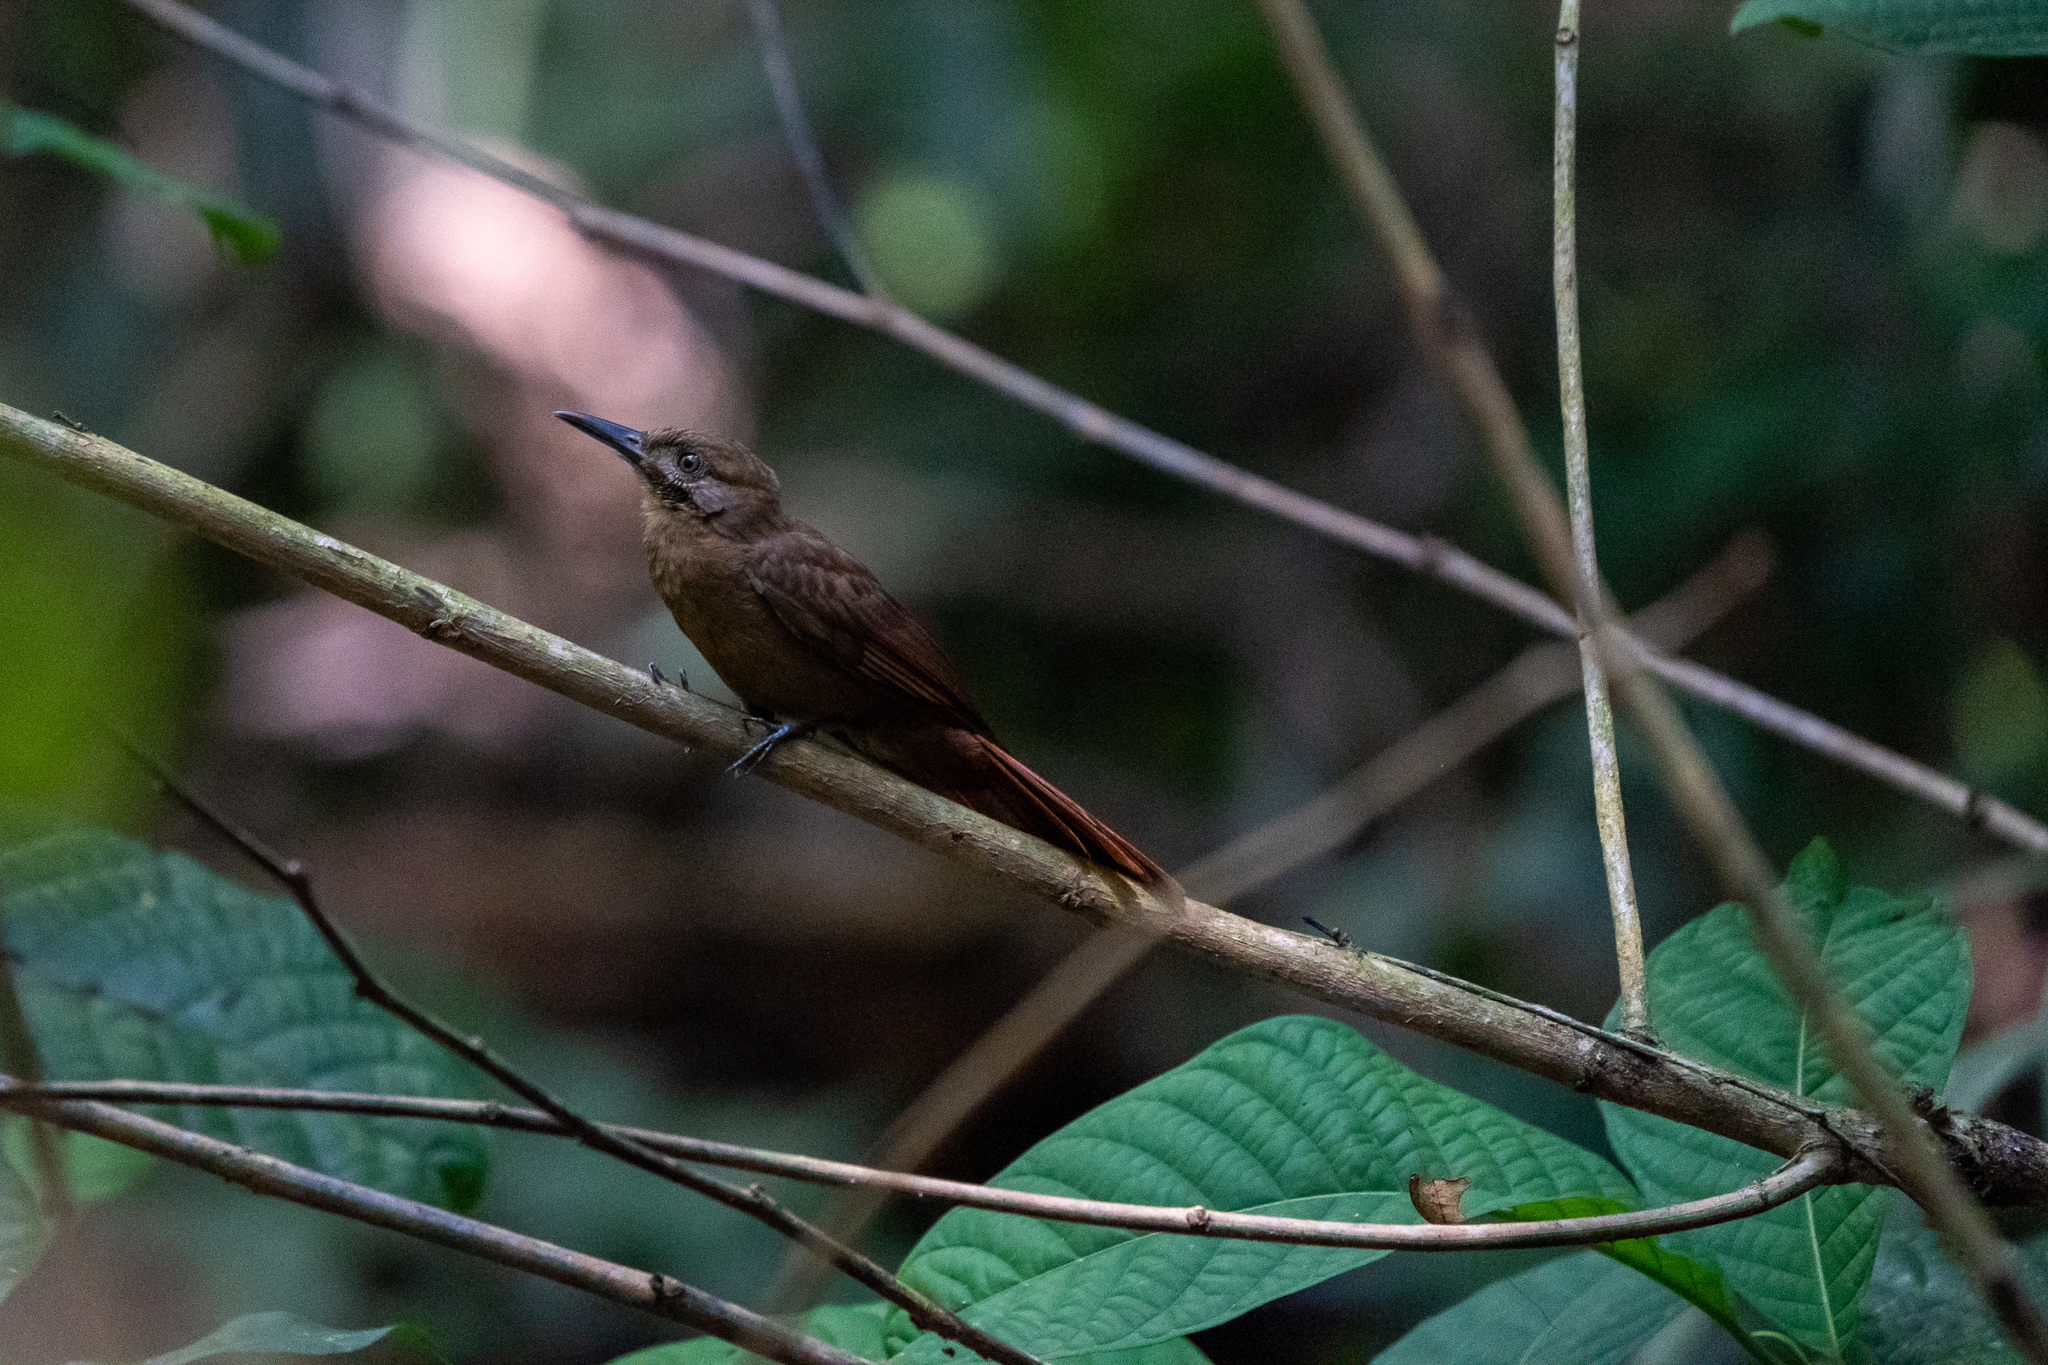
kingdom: Animalia
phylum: Chordata
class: Aves
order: Passeriformes
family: Furnariidae
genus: Dendrocincla
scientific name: Dendrocincla fuliginosa
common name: Plain-brown woodcreeper
